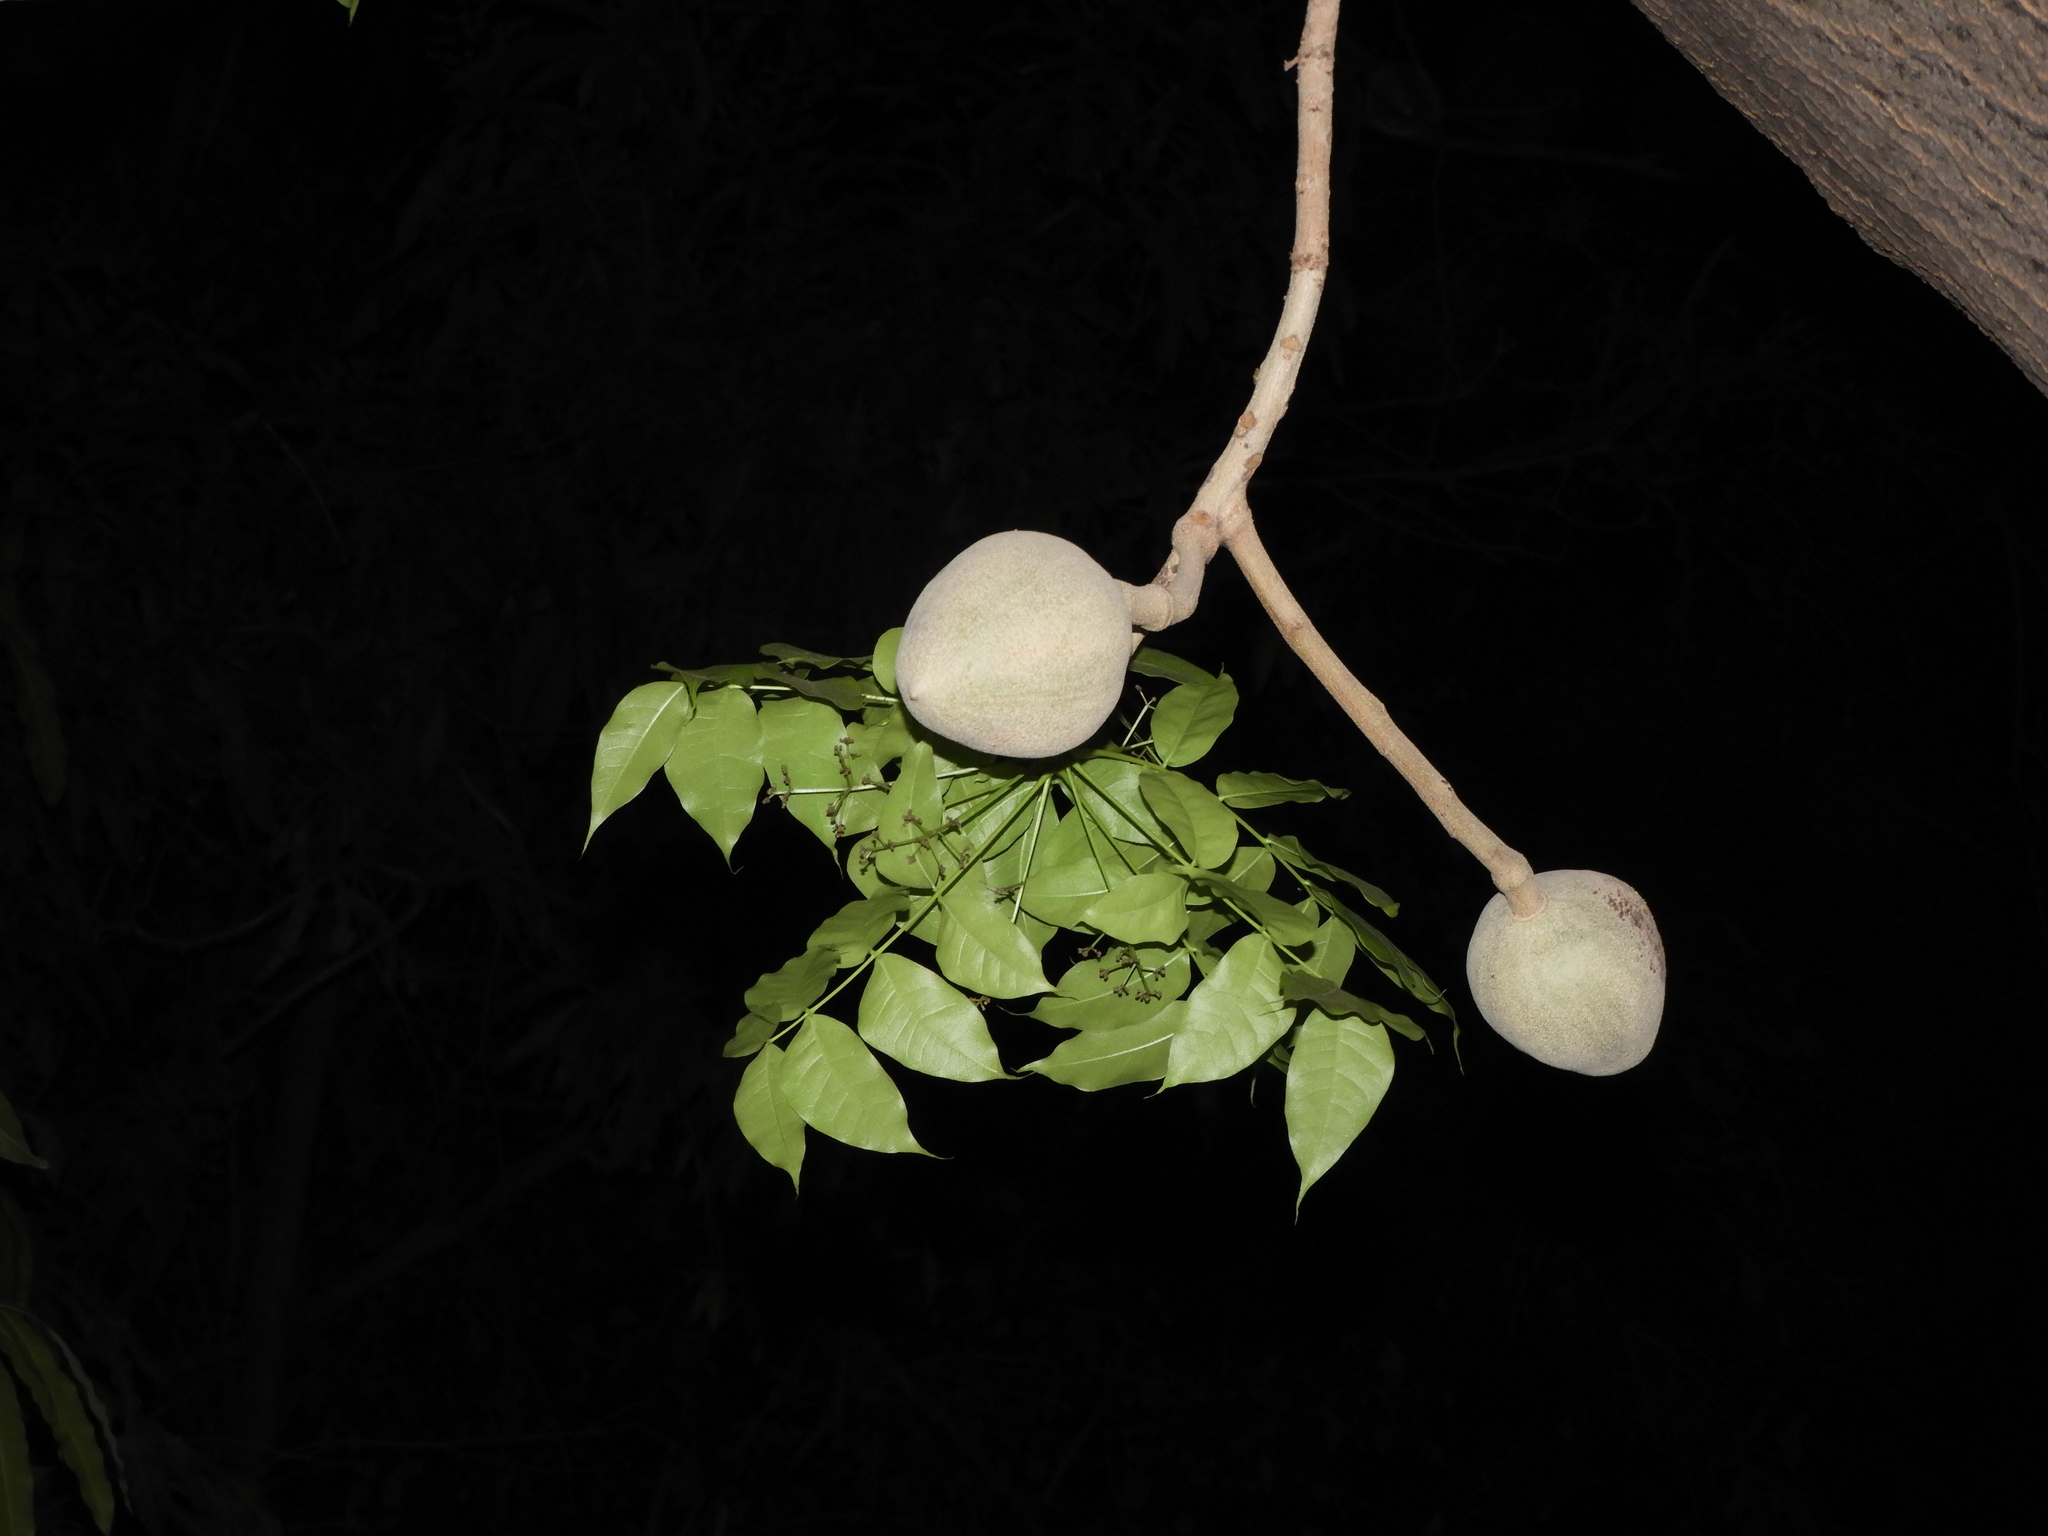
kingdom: Plantae
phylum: Tracheophyta
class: Magnoliopsida
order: Sapindales
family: Meliaceae
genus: Swietenia
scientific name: Swietenia humilis
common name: Pacific coast mahogany
